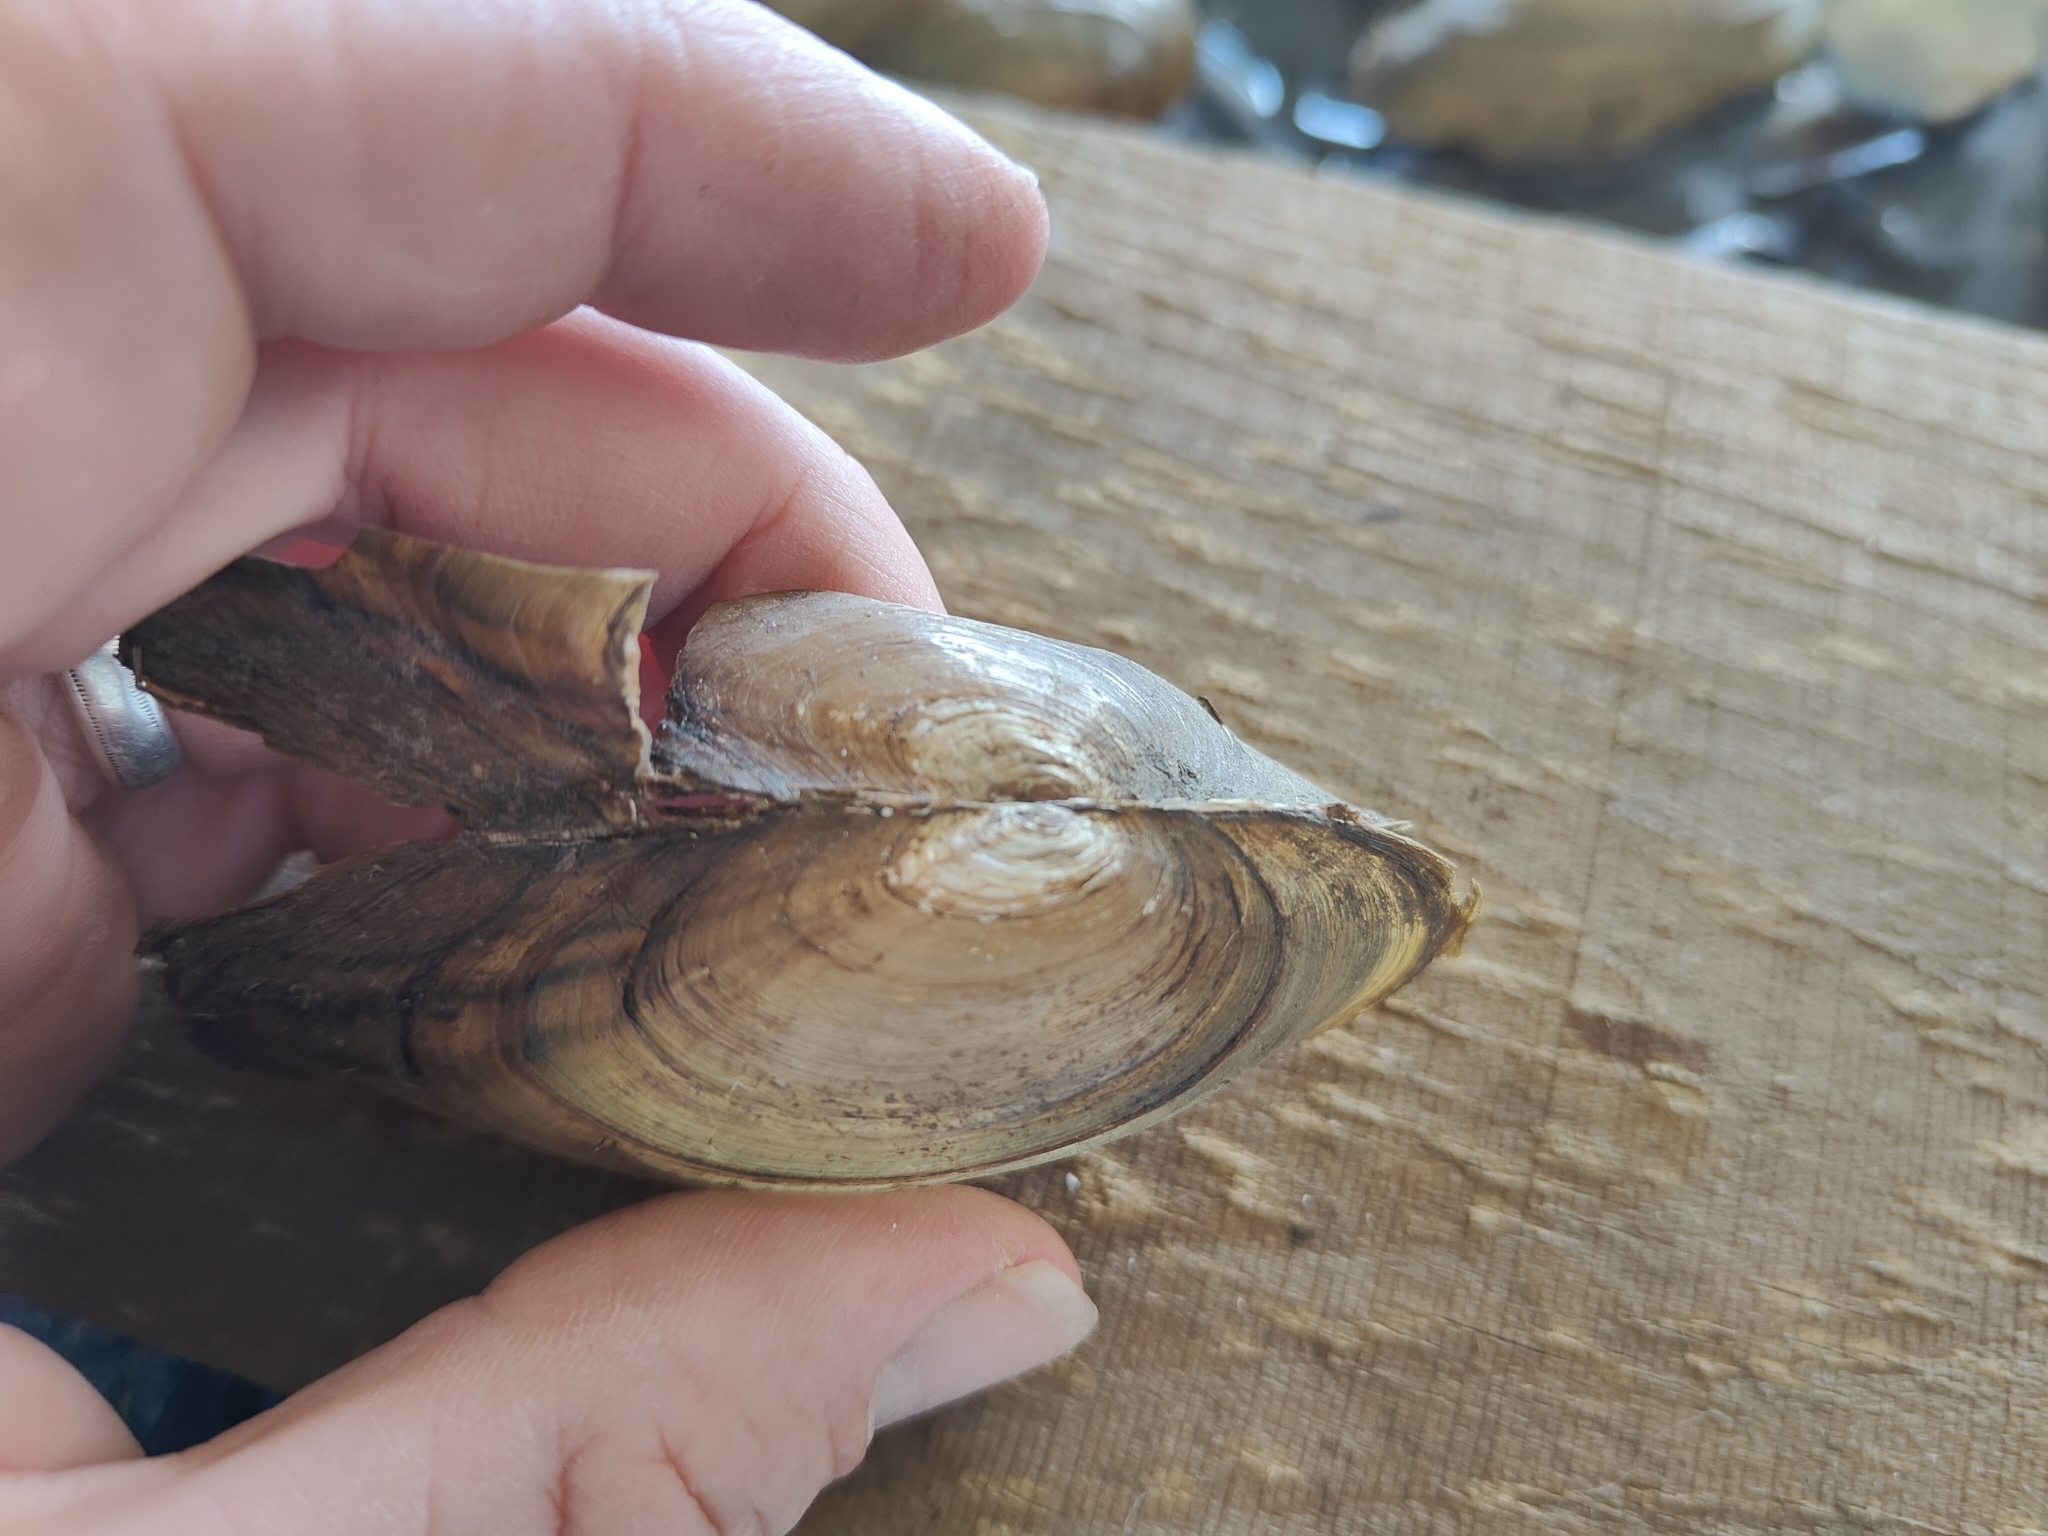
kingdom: Animalia
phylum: Mollusca
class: Bivalvia
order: Unionida
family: Unionidae
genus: Utterbackia
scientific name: Utterbackia imbecillis
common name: Paper pondshell
